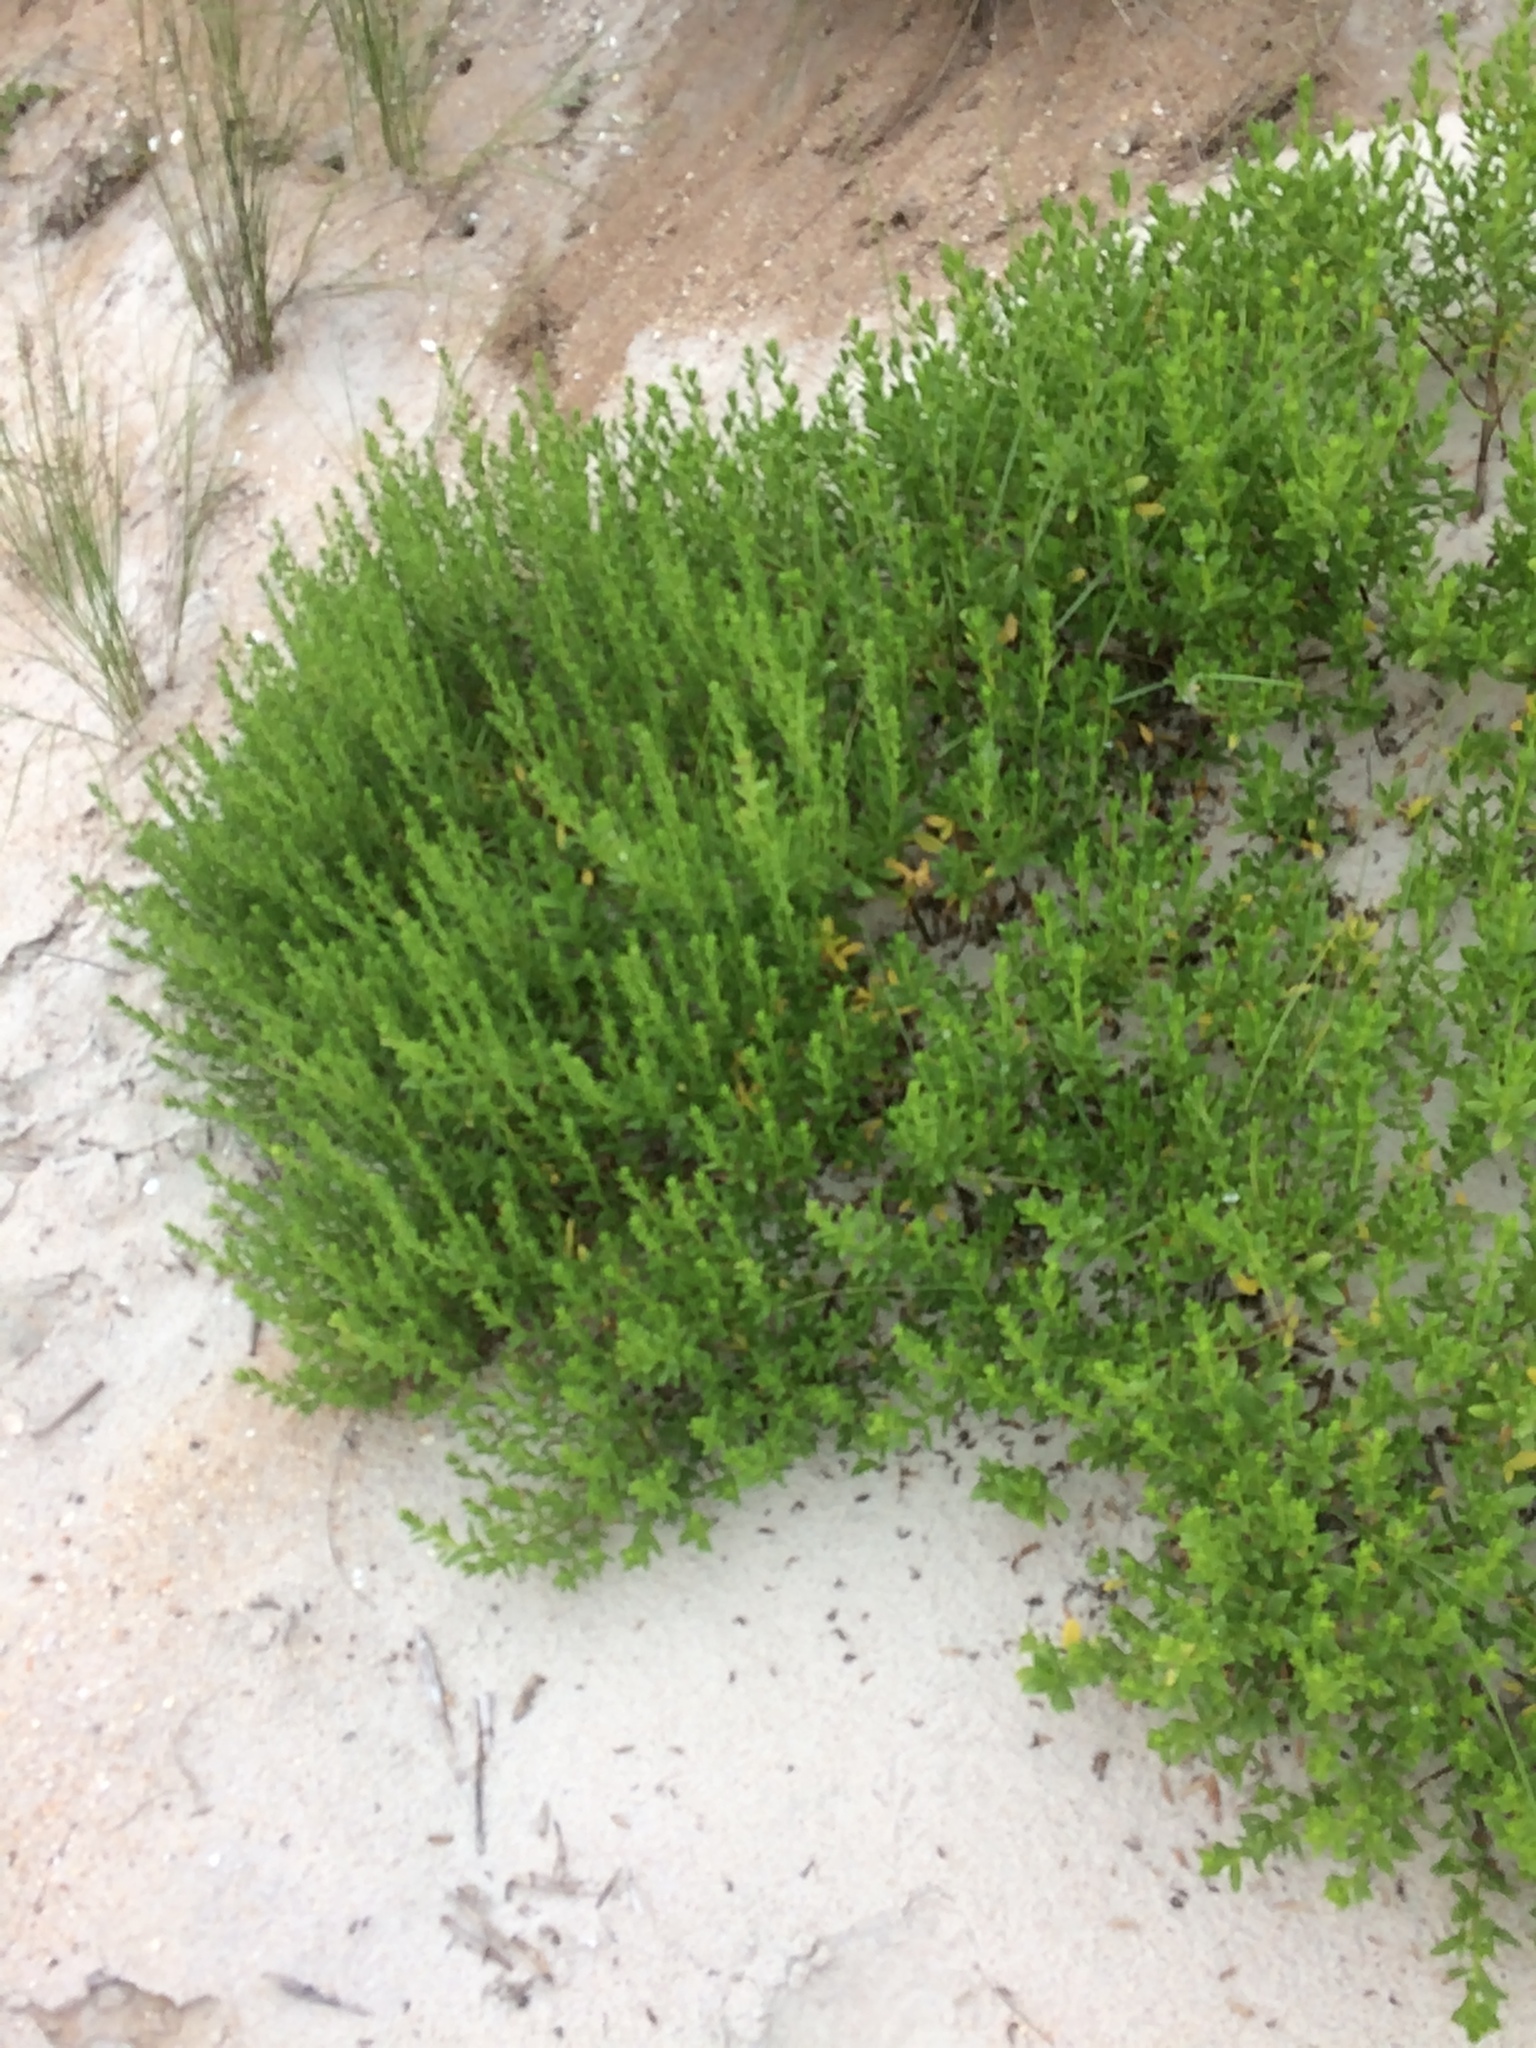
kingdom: Plantae
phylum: Tracheophyta
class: Magnoliopsida
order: Asterales
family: Asteraceae
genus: Iva
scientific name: Iva imbricata
